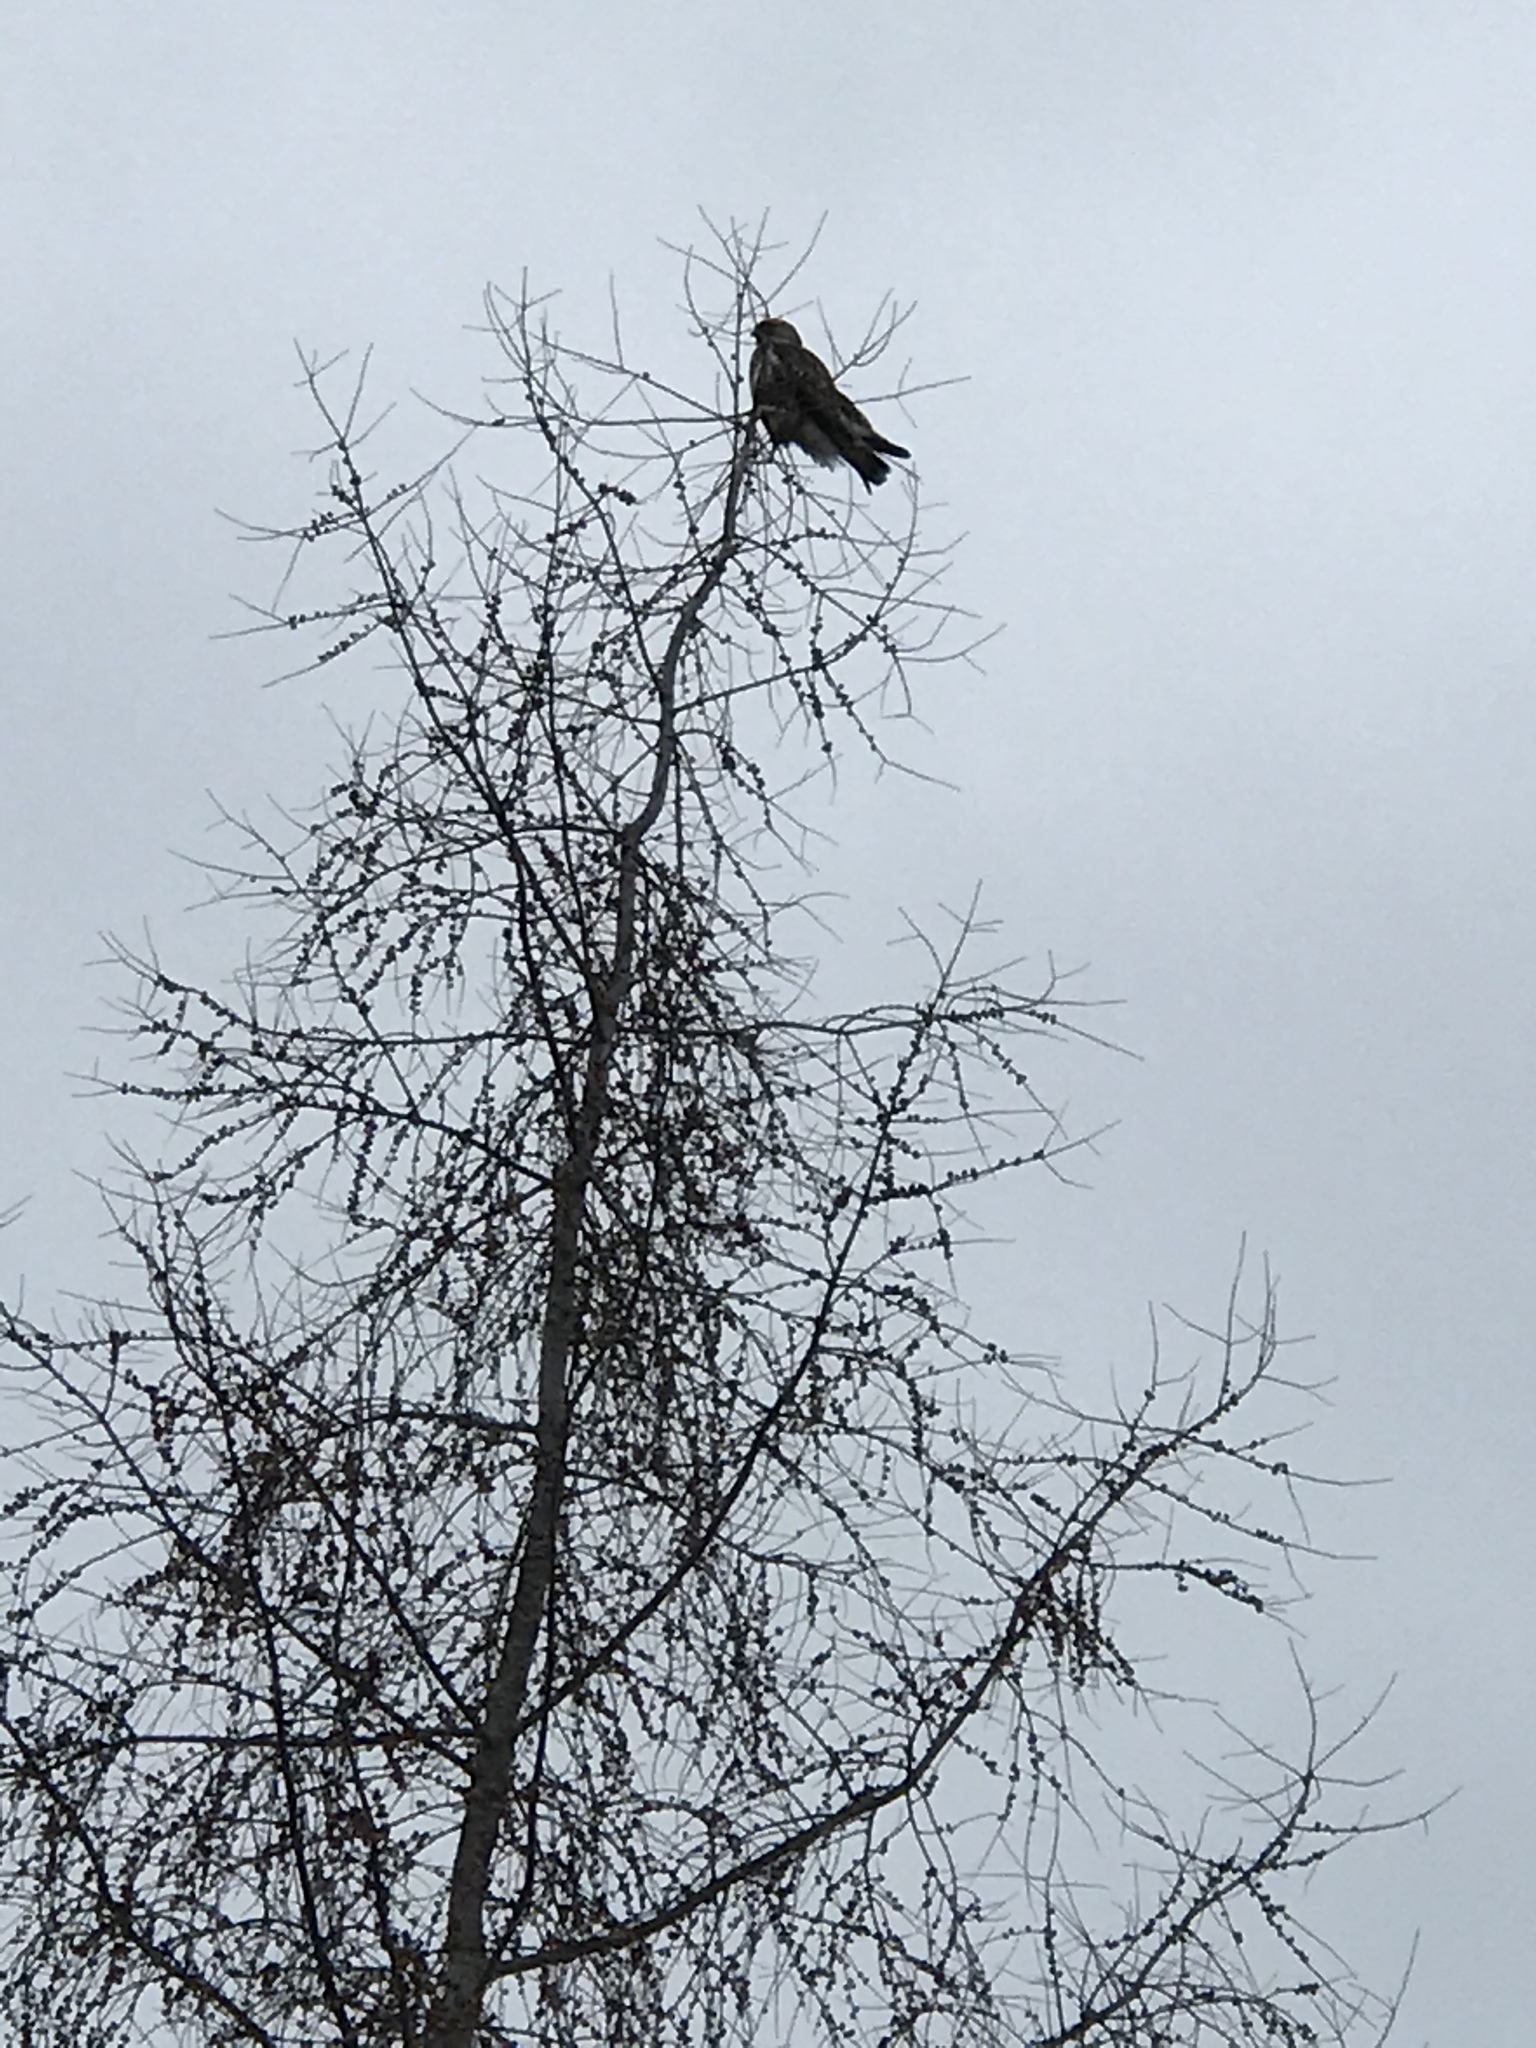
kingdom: Animalia
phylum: Chordata
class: Aves
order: Accipitriformes
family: Accipitridae
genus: Buteo
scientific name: Buteo lagopus
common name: Rough-legged buzzard
